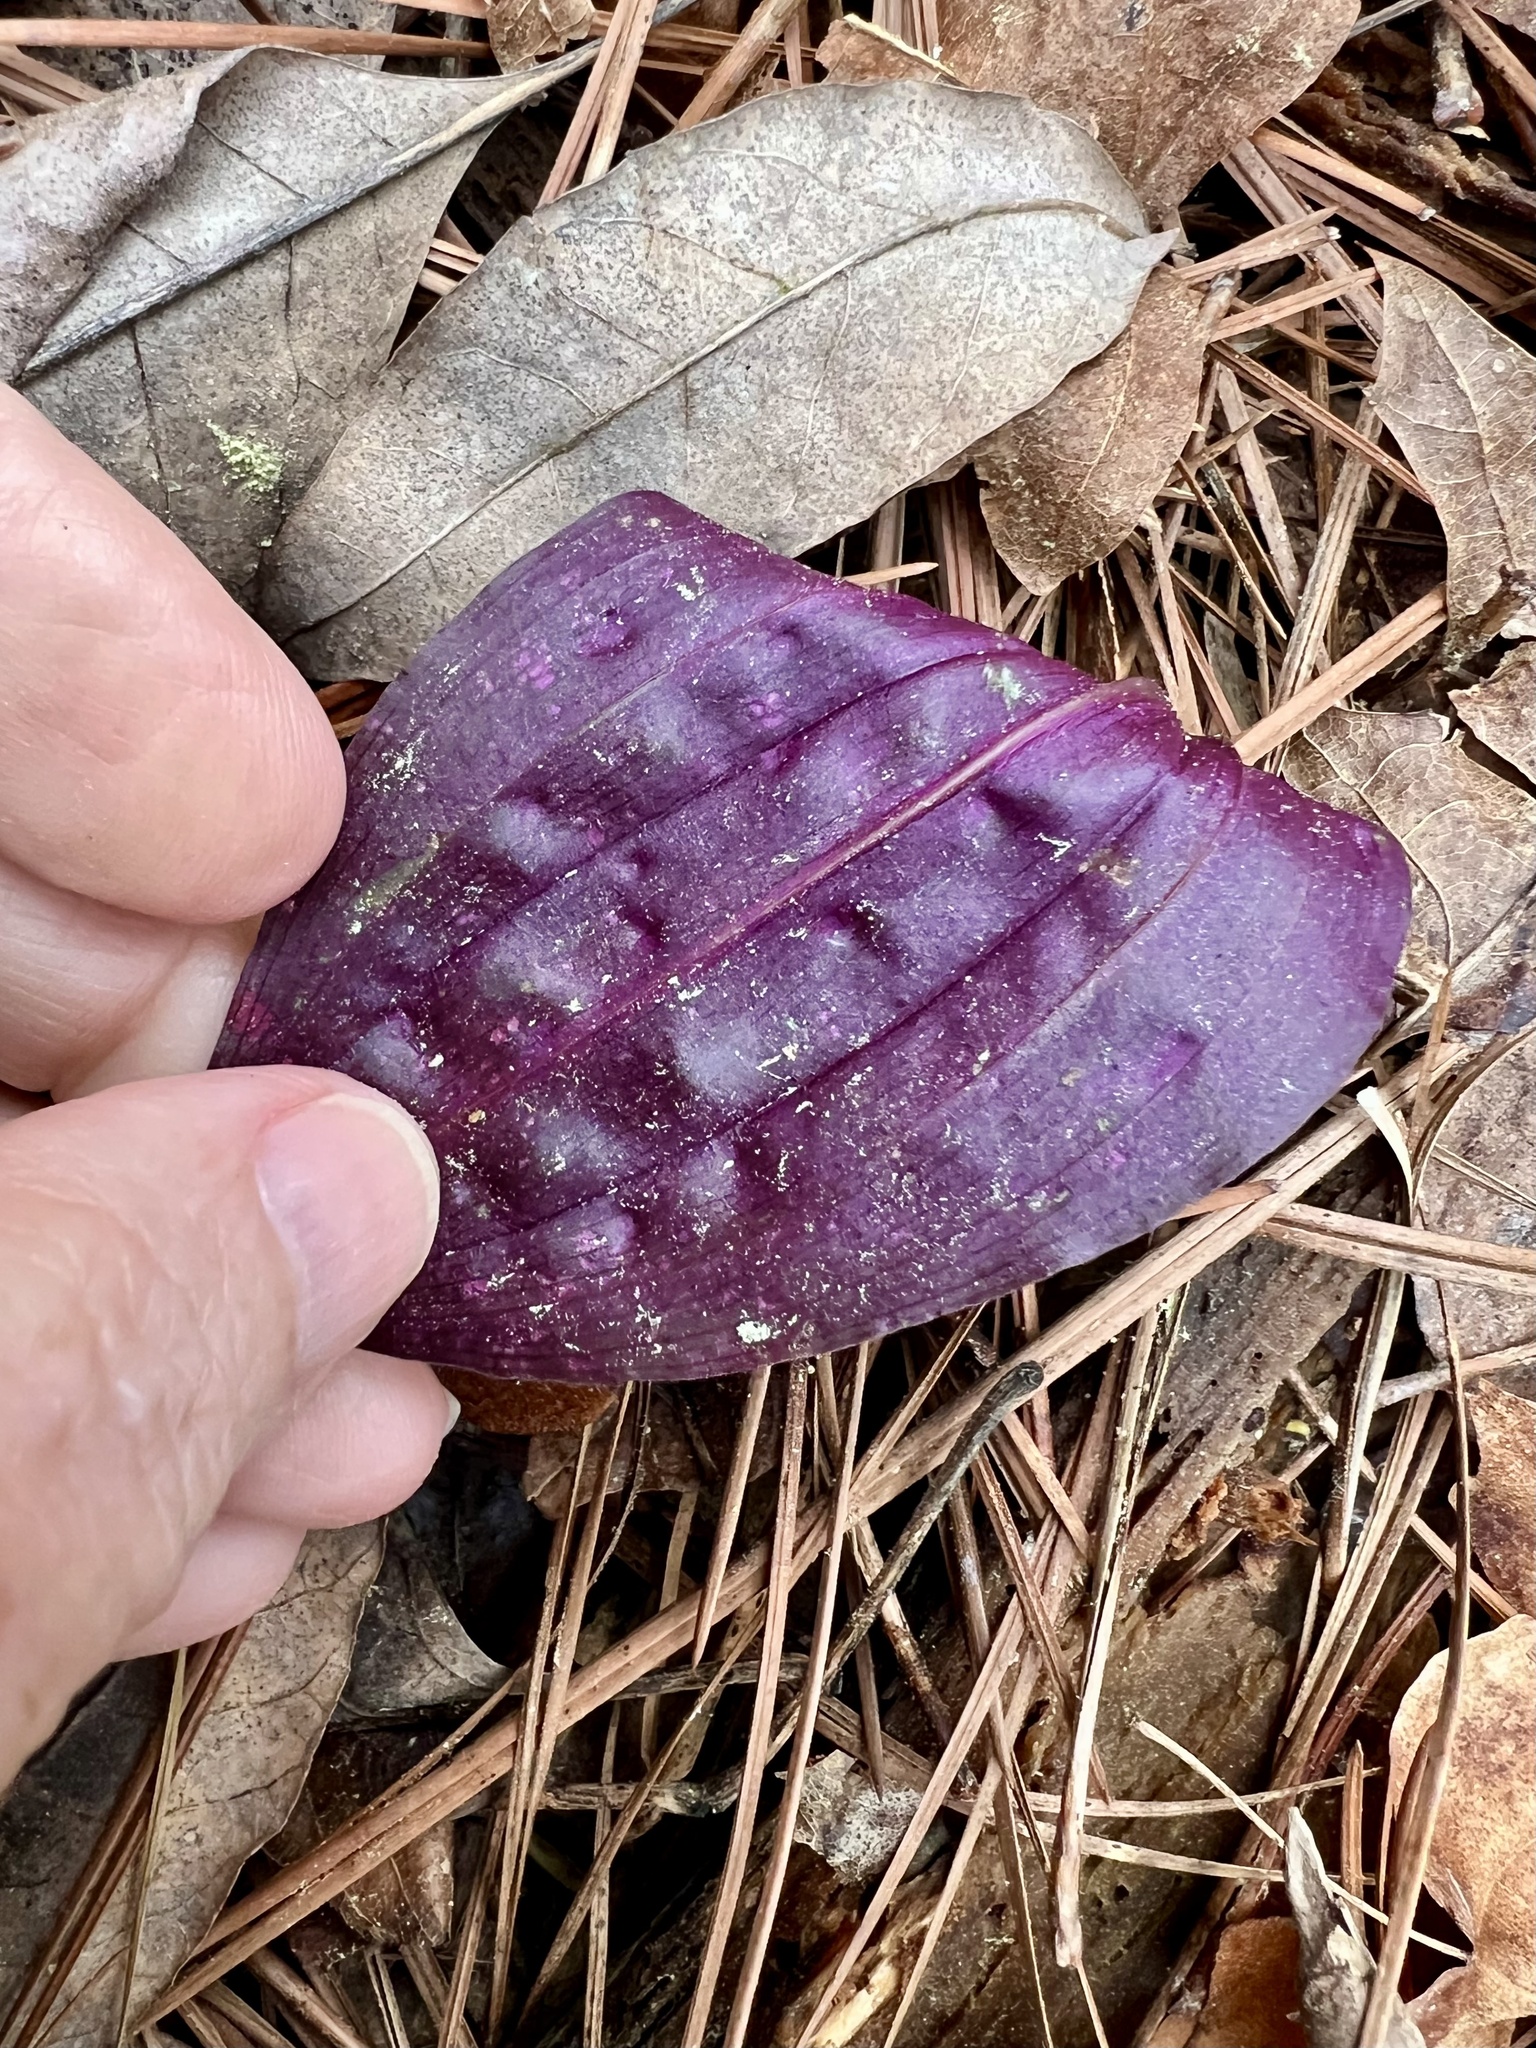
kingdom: Plantae
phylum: Tracheophyta
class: Liliopsida
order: Asparagales
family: Orchidaceae
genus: Tipularia
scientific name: Tipularia discolor
